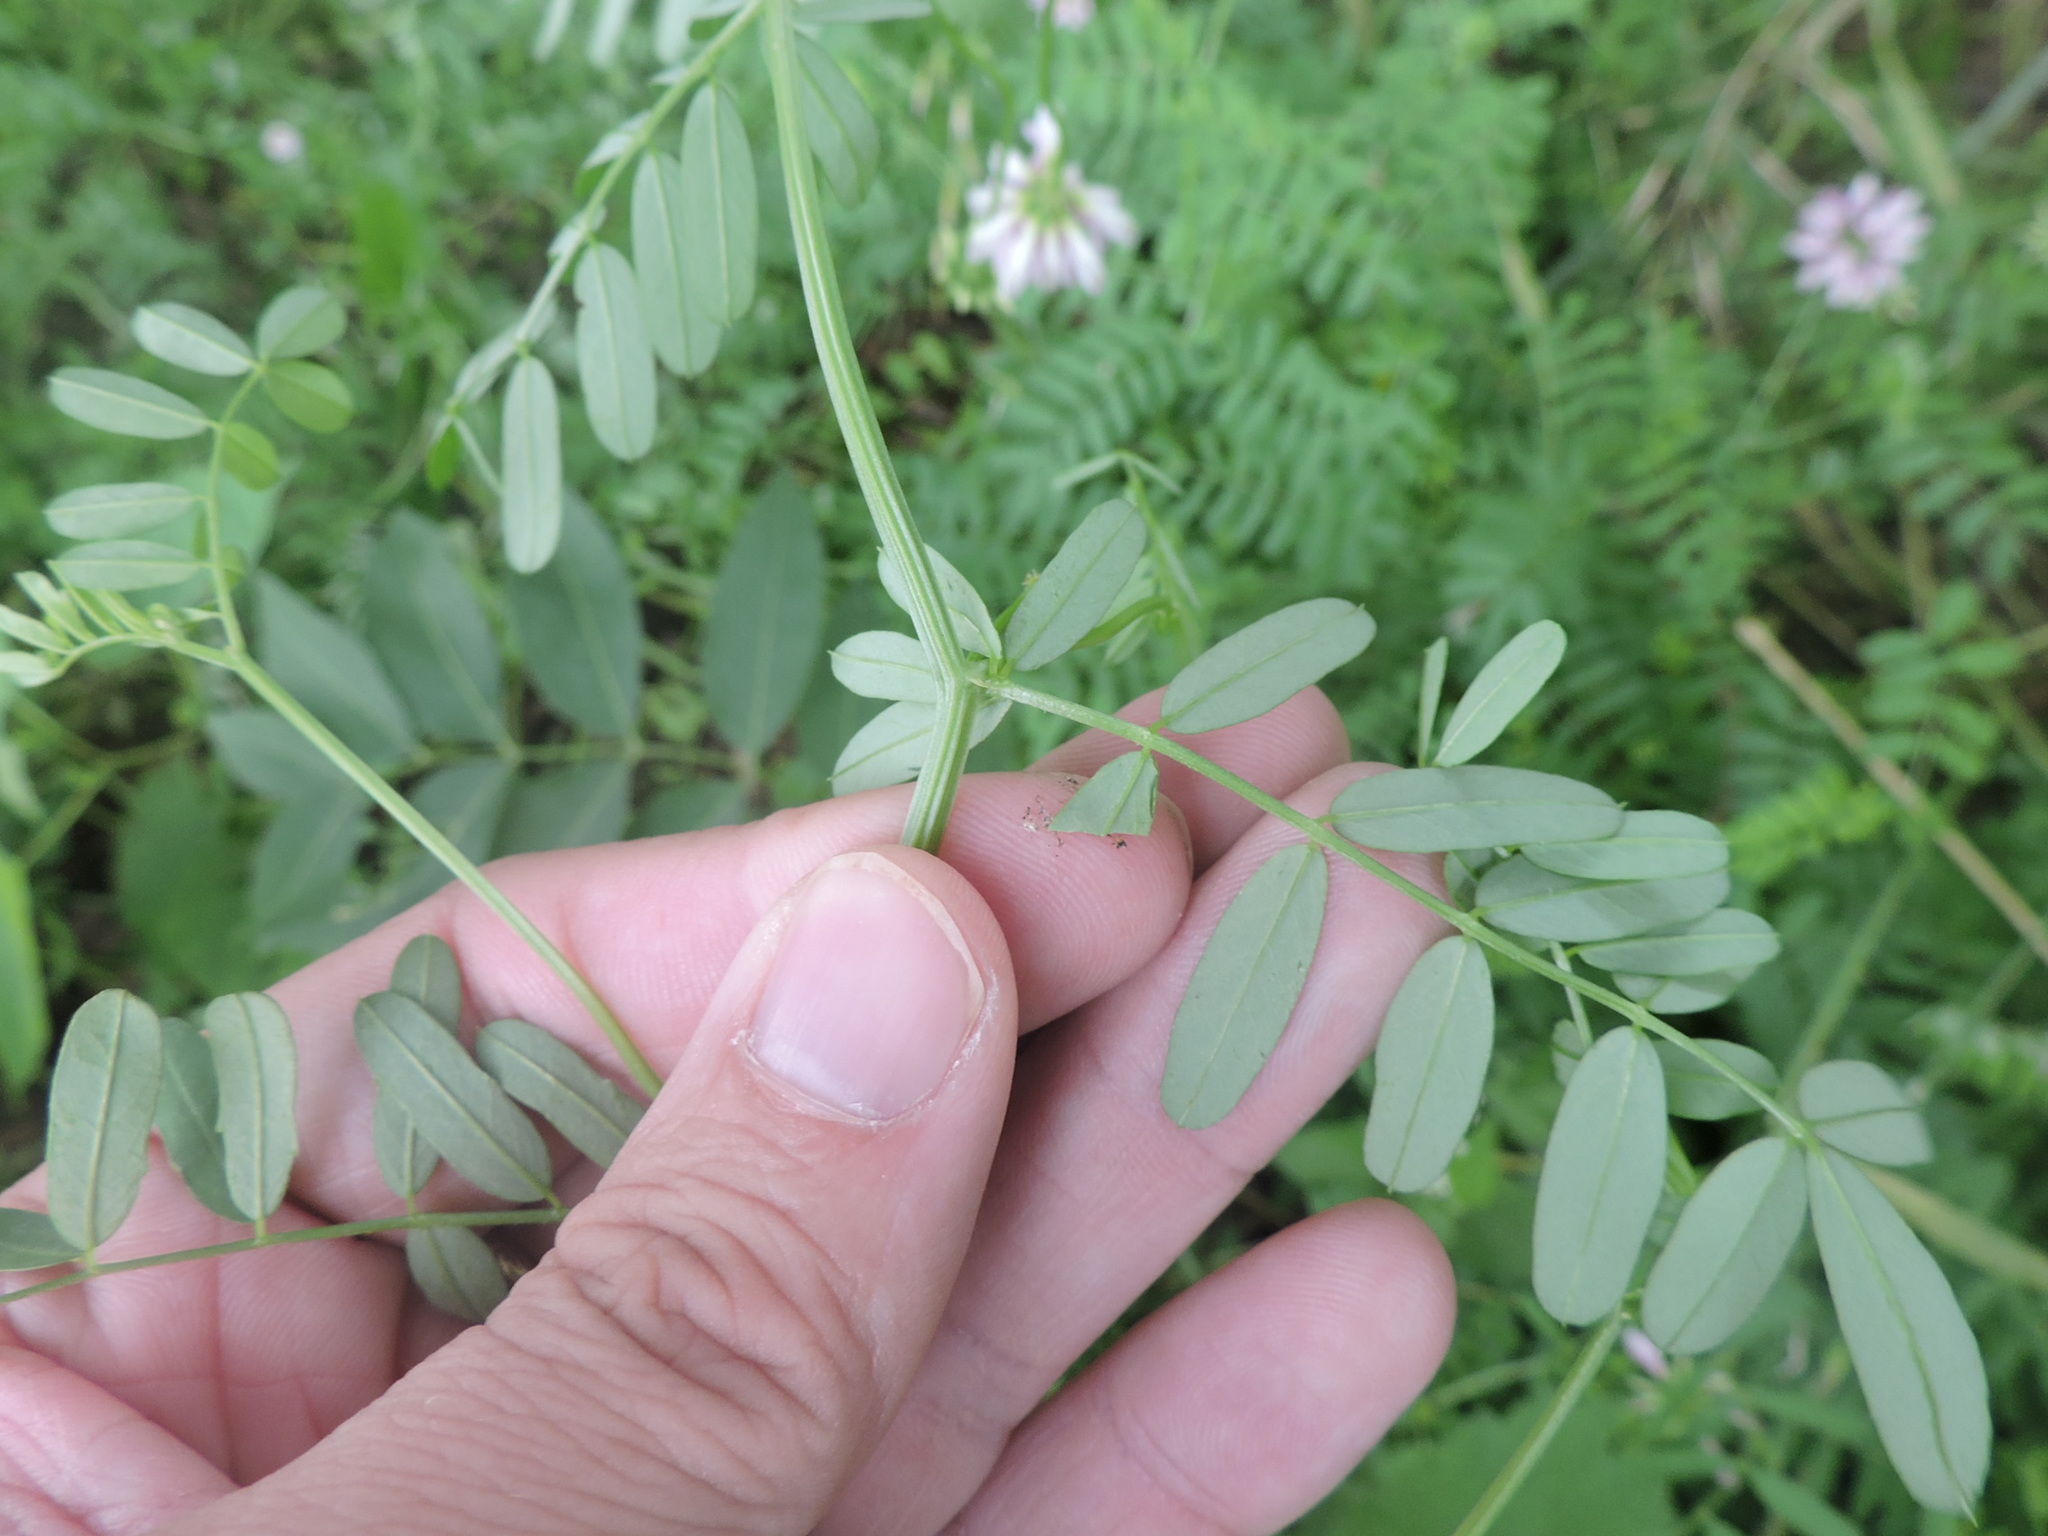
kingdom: Plantae
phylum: Tracheophyta
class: Magnoliopsida
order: Fabales
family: Fabaceae
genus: Coronilla
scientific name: Coronilla varia
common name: Crownvetch
